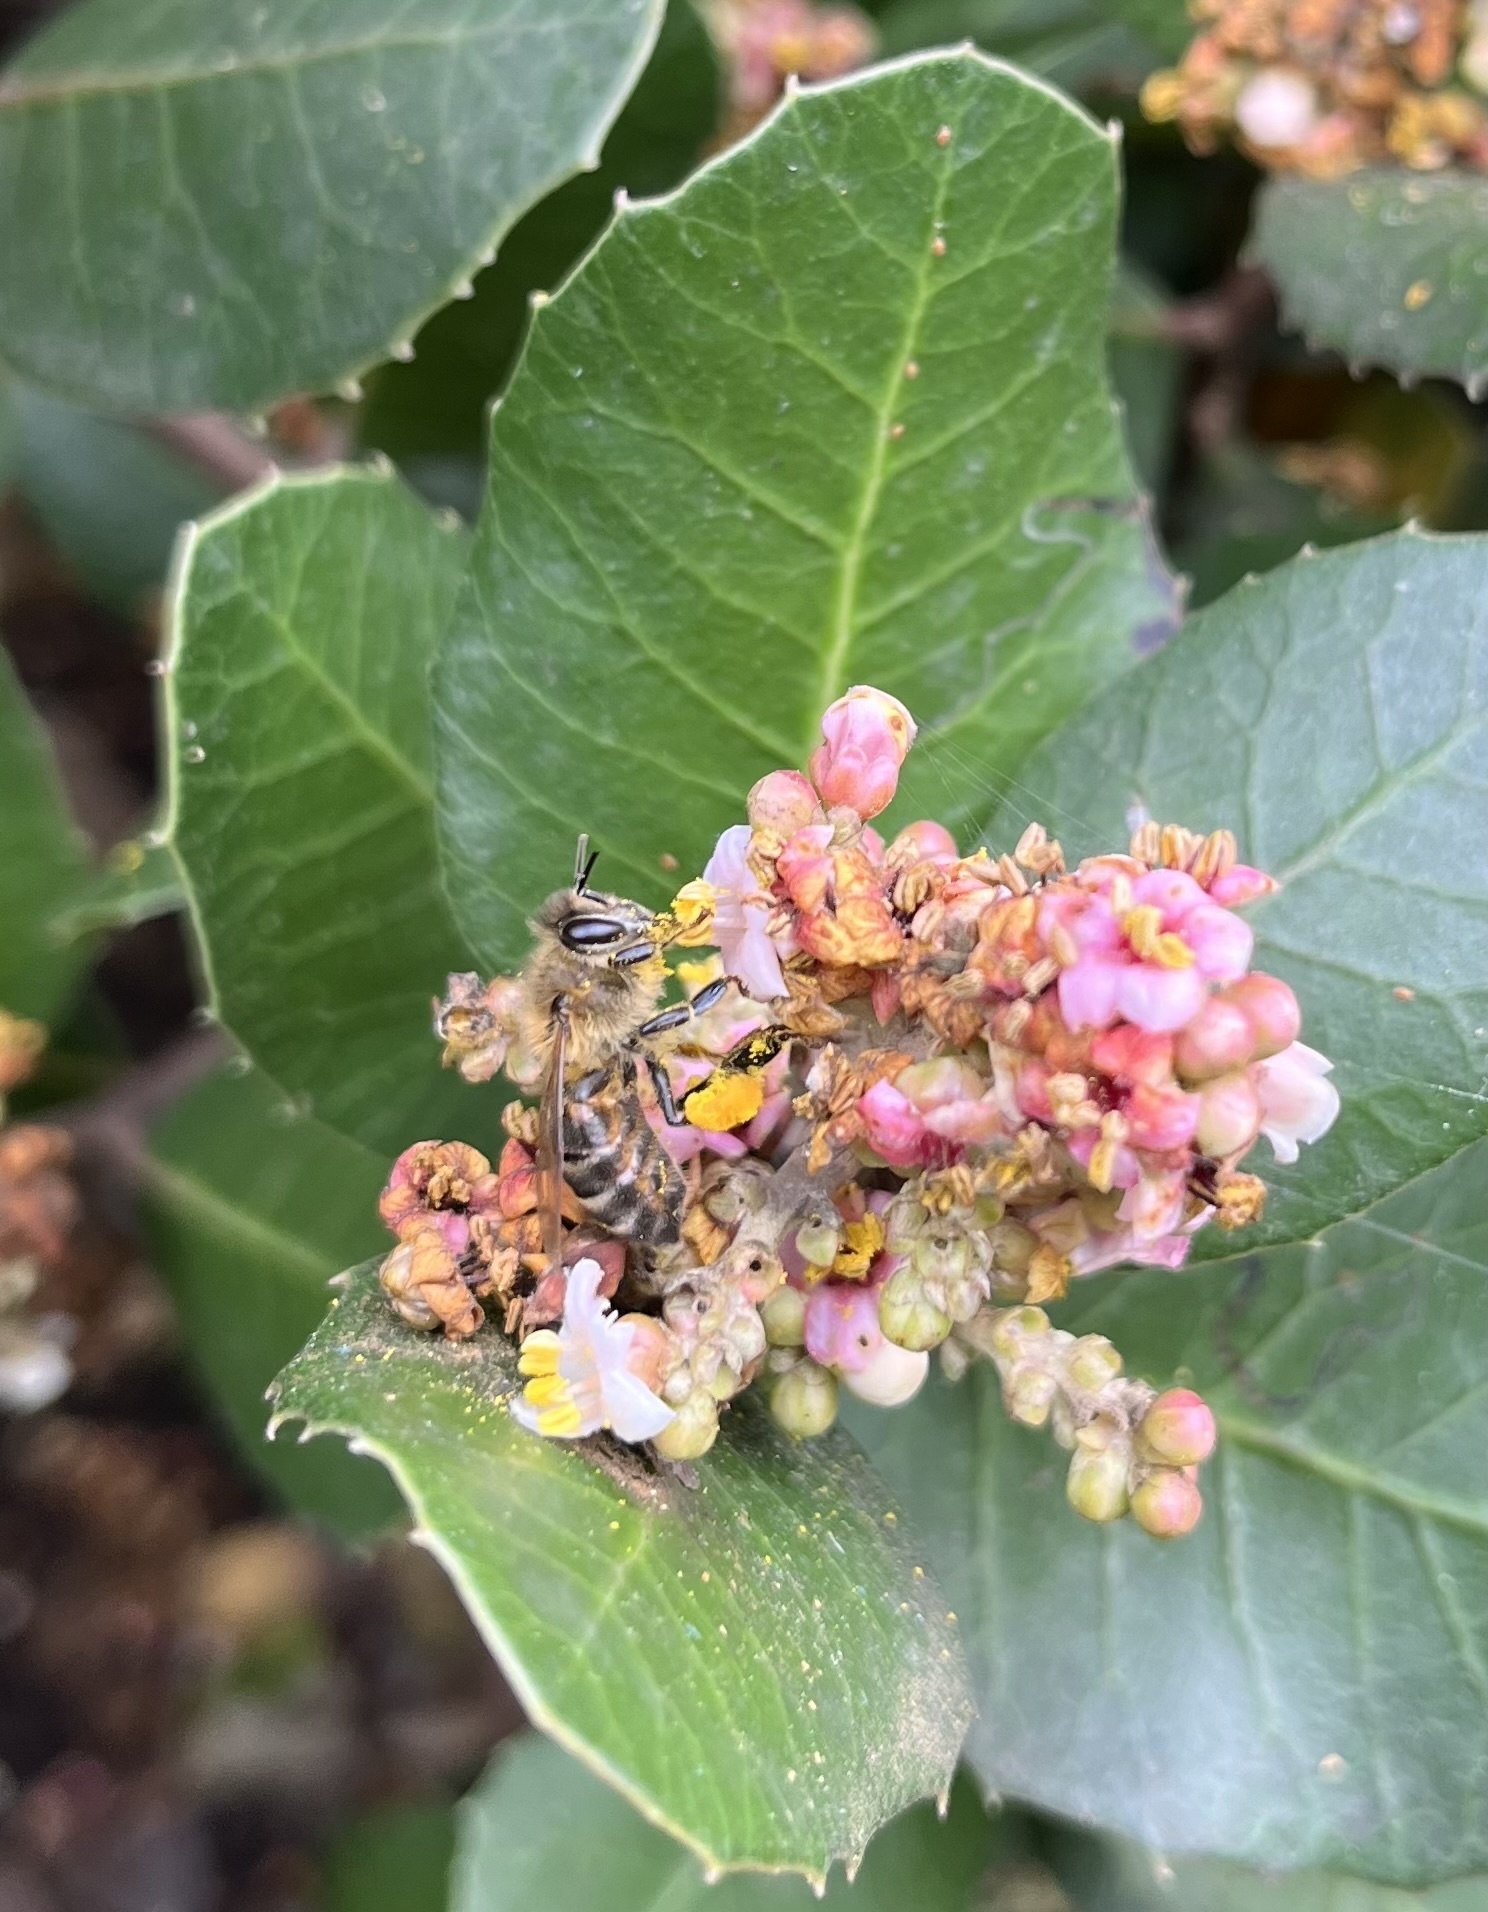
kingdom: Animalia
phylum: Arthropoda
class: Insecta
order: Hymenoptera
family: Apidae
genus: Apis
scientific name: Apis mellifera
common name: Honey bee
